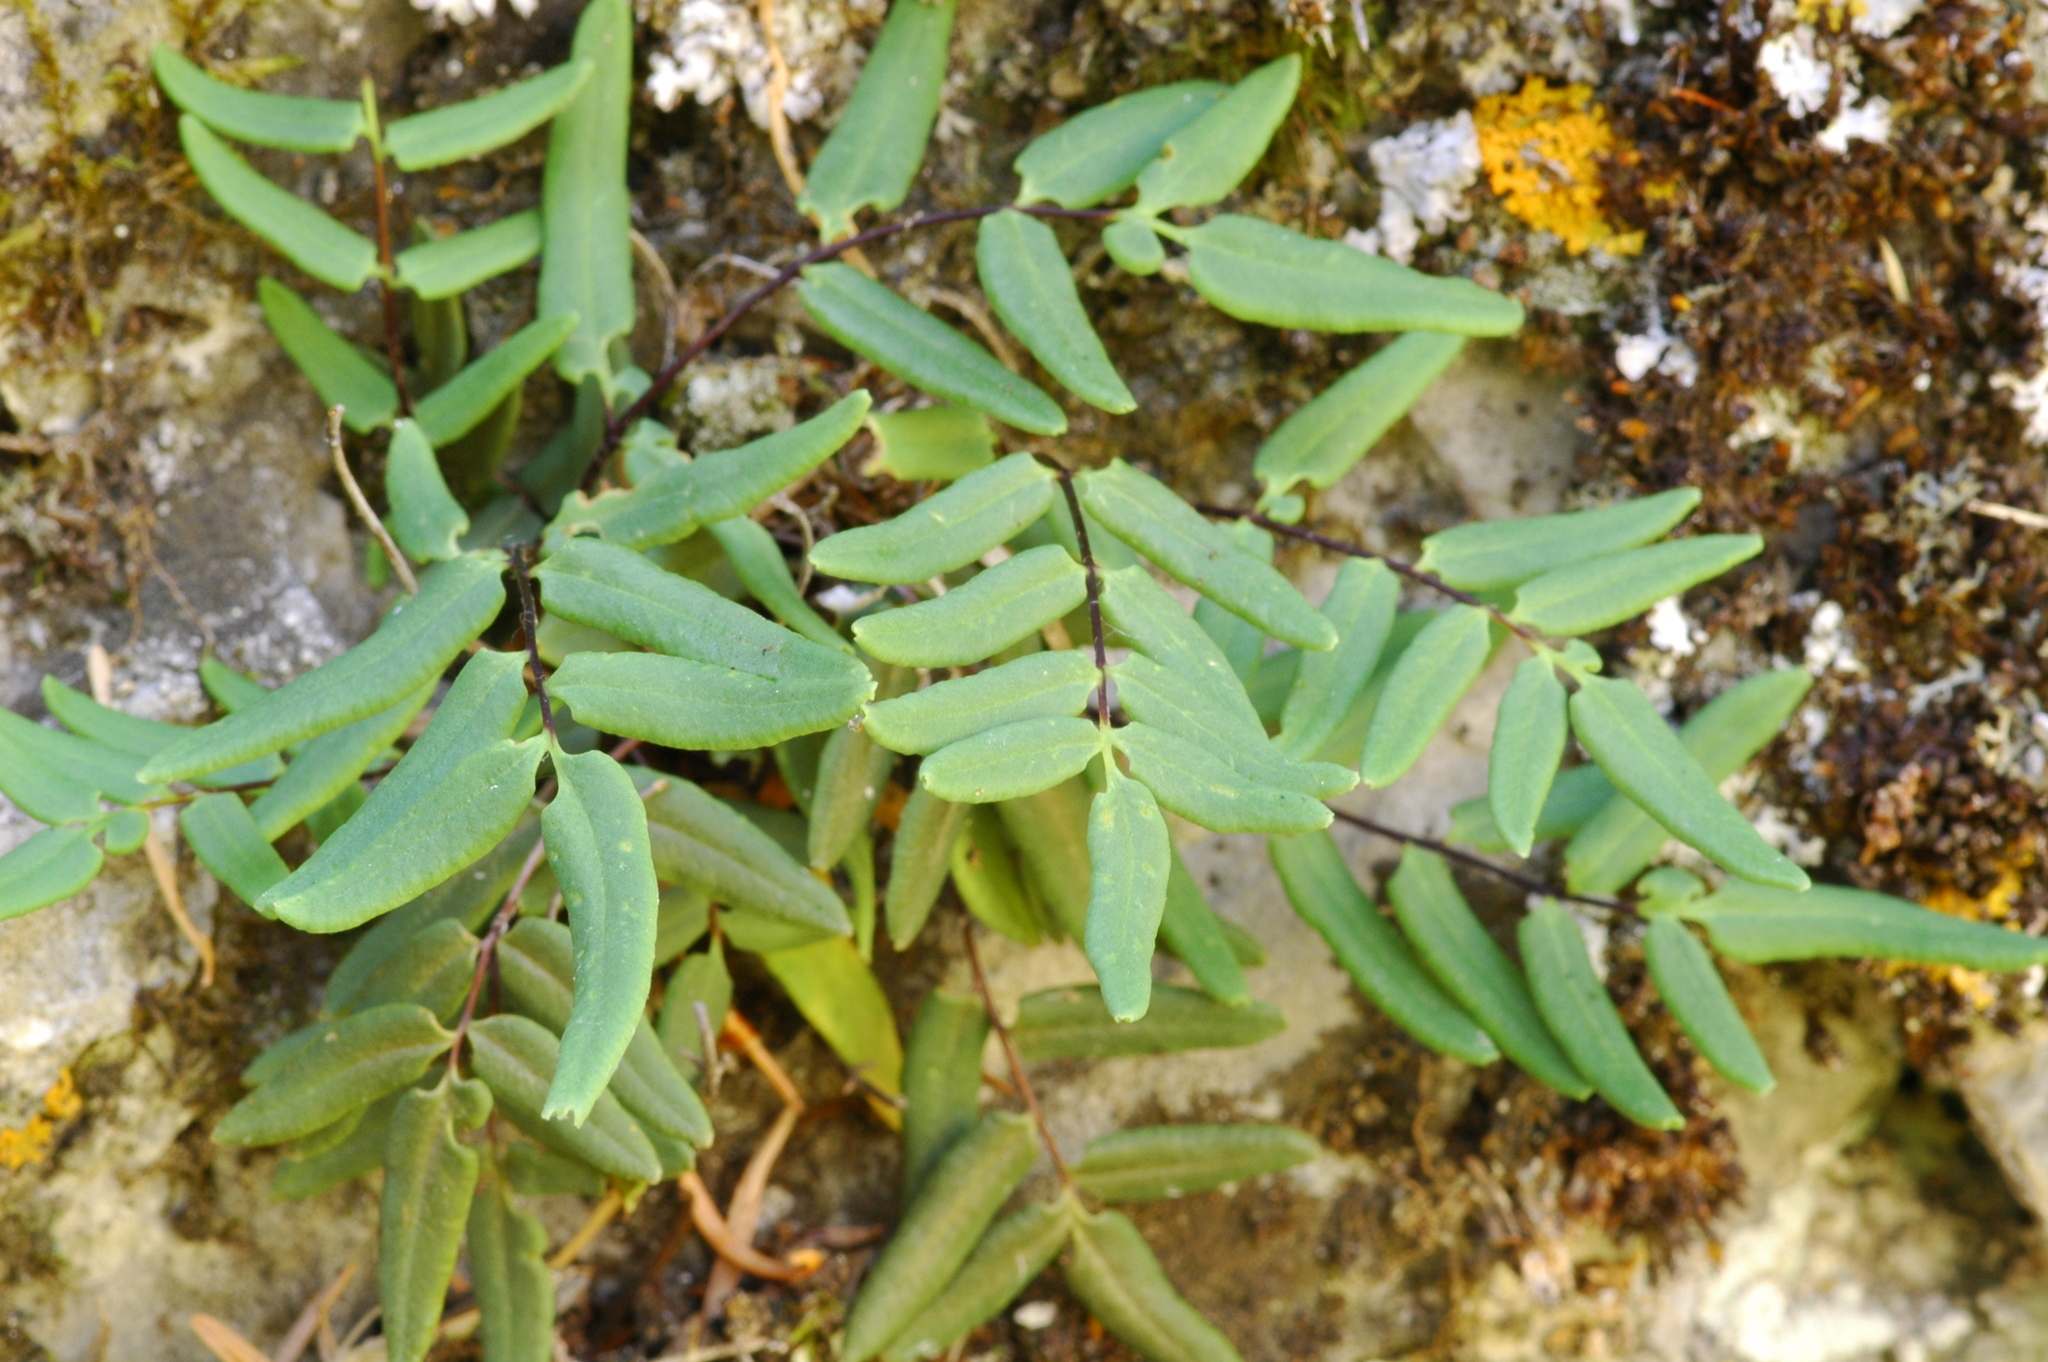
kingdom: Plantae
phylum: Tracheophyta
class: Polypodiopsida
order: Polypodiales
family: Pteridaceae
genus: Pellaea
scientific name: Pellaea glabella
